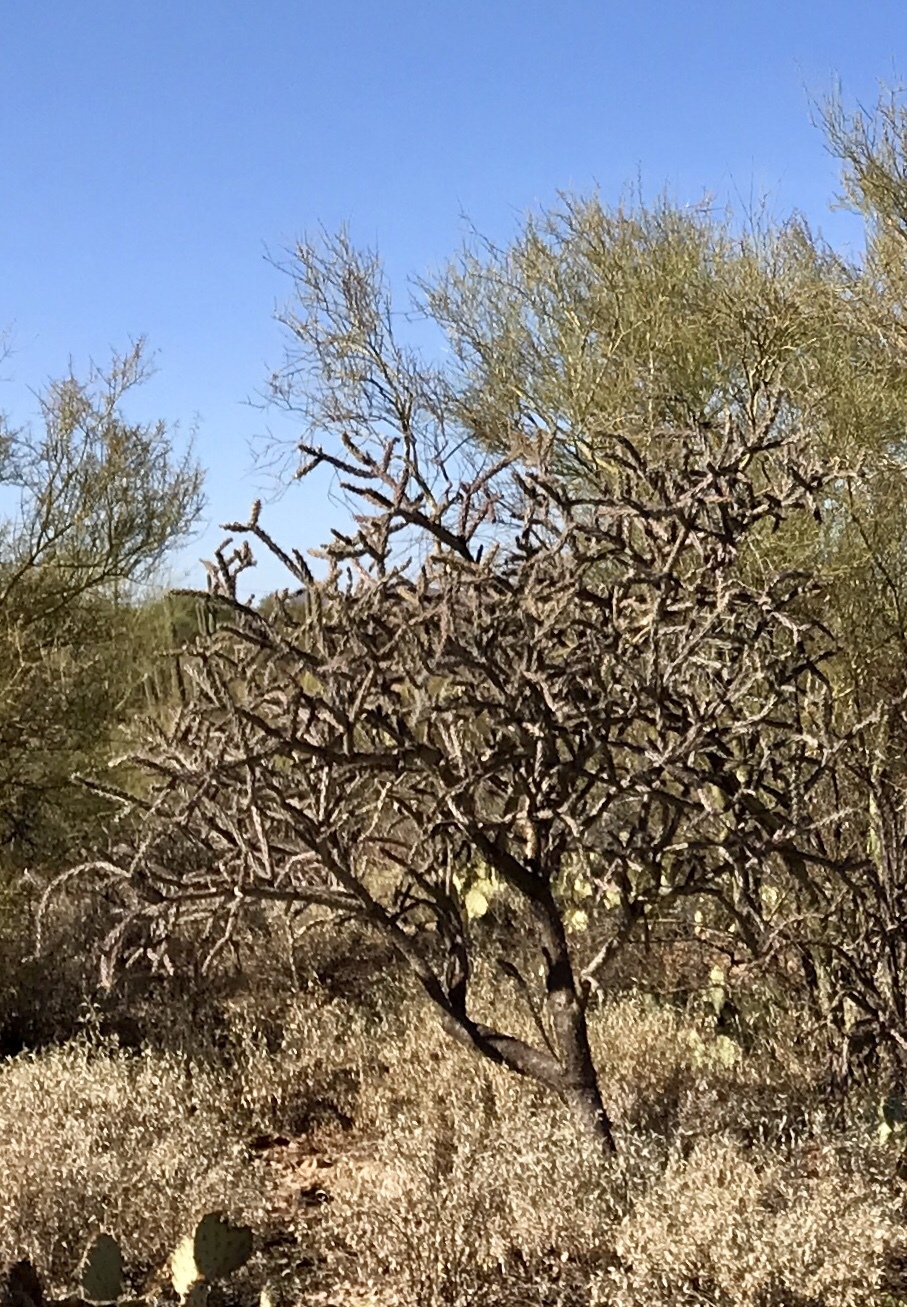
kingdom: Plantae
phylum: Tracheophyta
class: Magnoliopsida
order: Caryophyllales
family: Cactaceae
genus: Cylindropuntia
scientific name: Cylindropuntia thurberi
